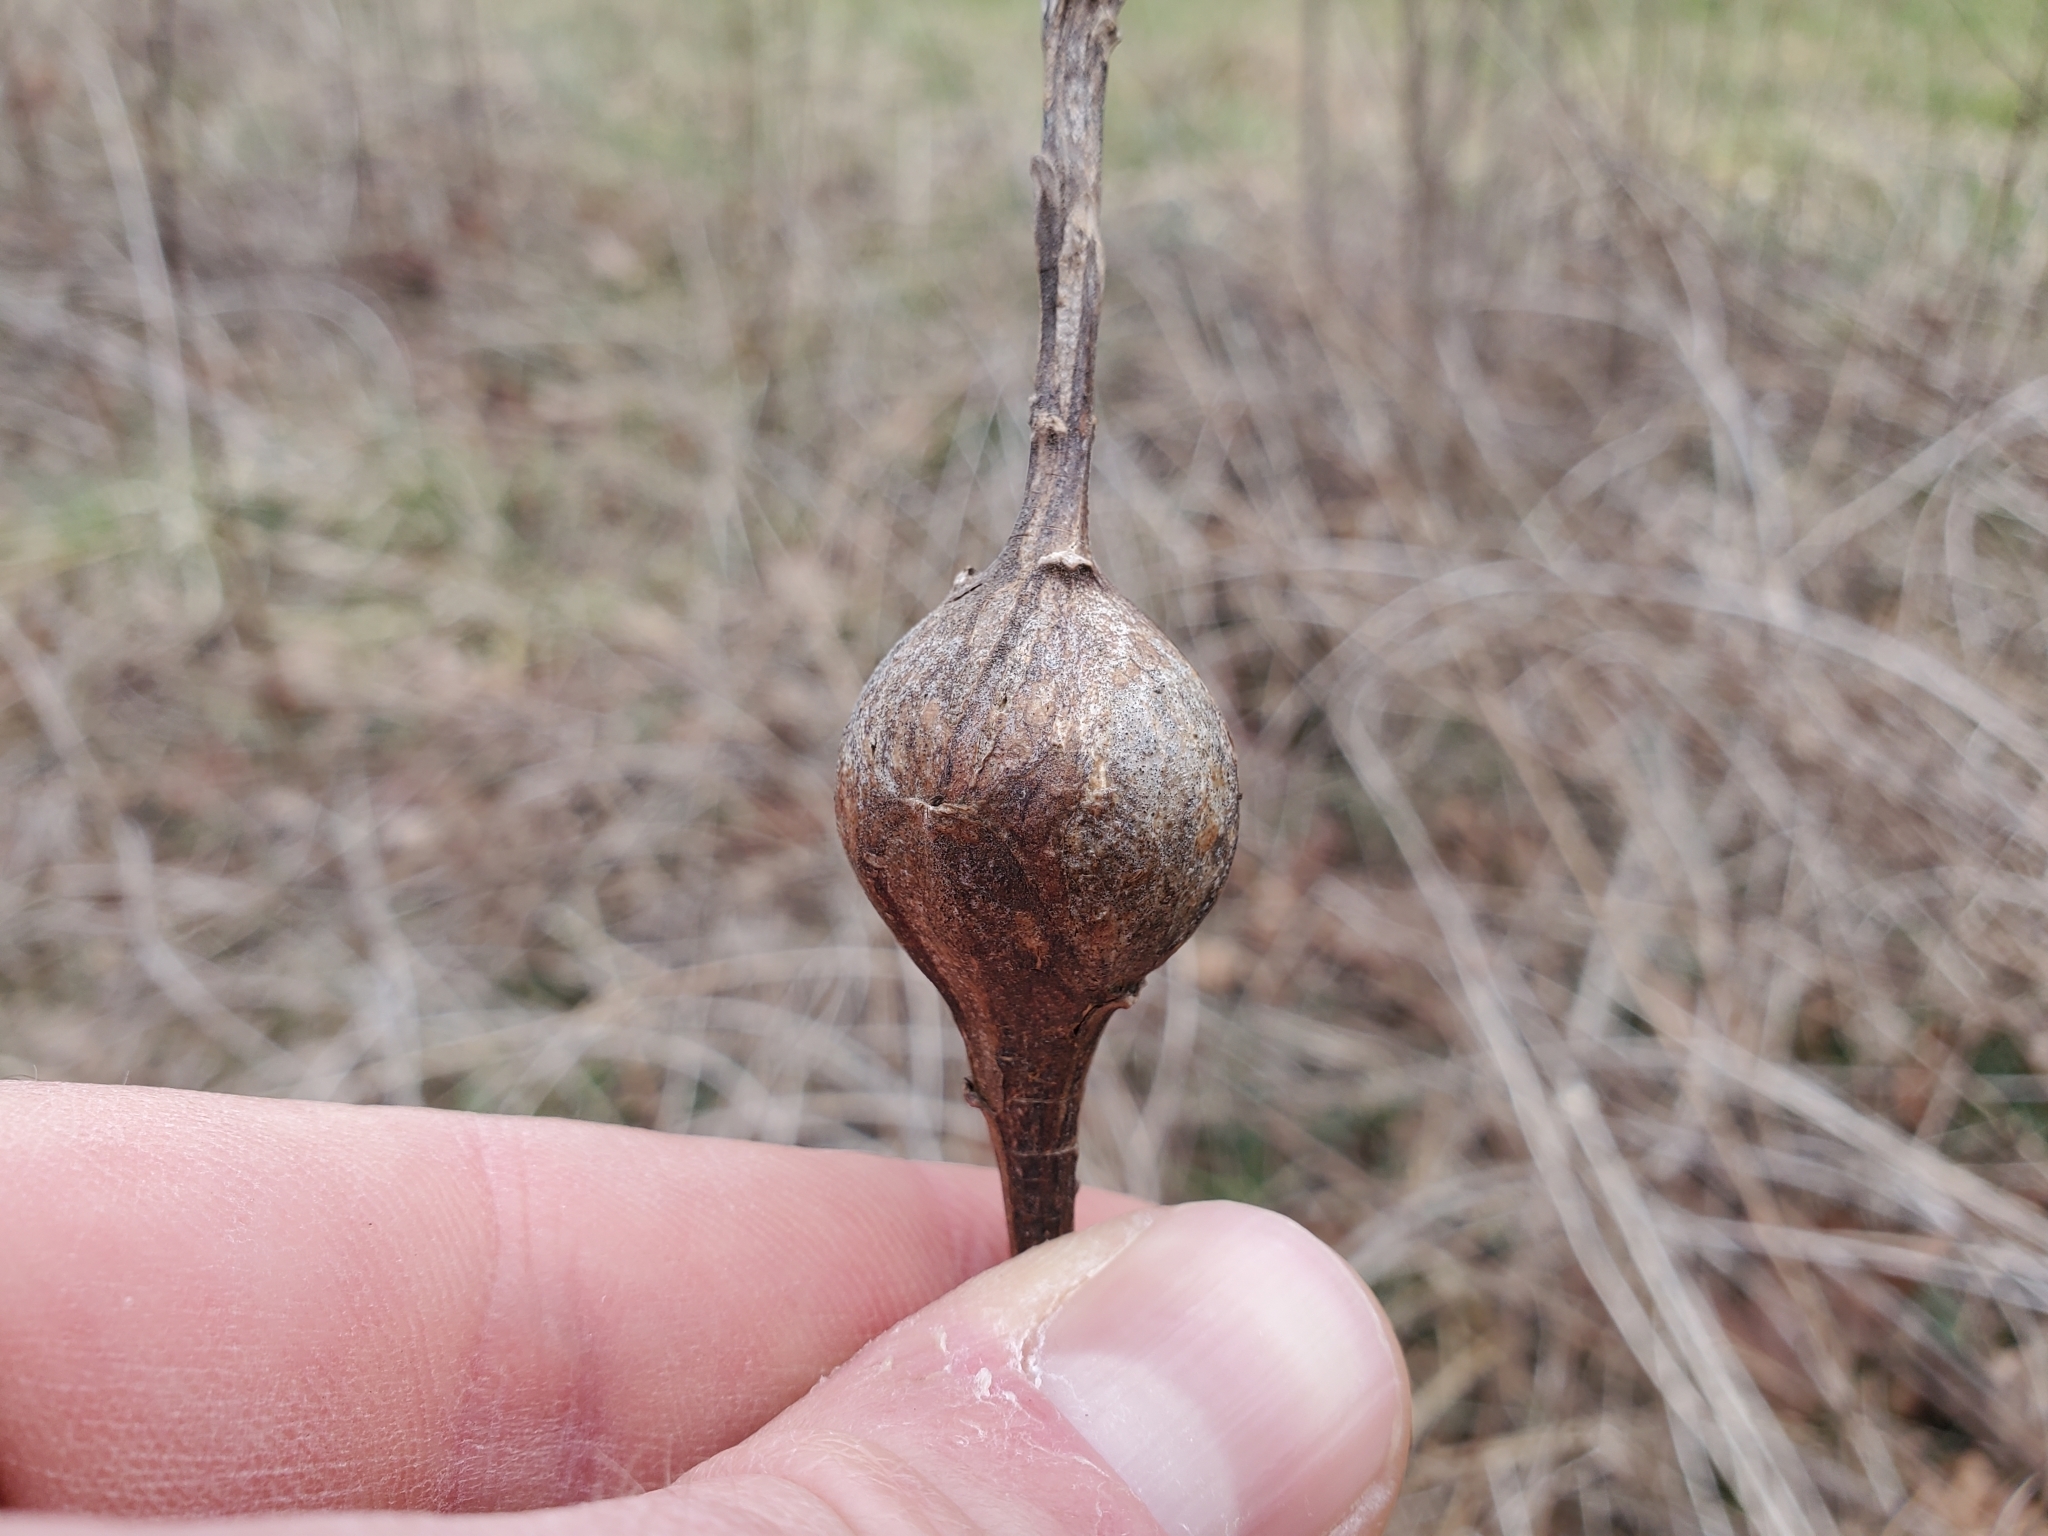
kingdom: Animalia
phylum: Arthropoda
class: Insecta
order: Diptera
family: Tephritidae
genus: Eurosta
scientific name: Eurosta solidaginis
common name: Goldenrod gall fly
